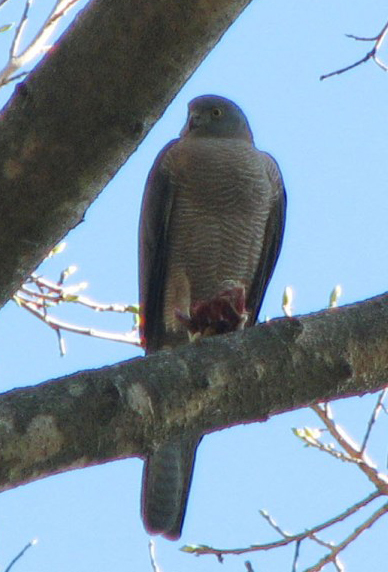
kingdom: Animalia
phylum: Chordata
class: Aves
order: Accipitriformes
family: Accipitridae
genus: Accipiter
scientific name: Accipiter cirrocephalus
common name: Collared sparrowhawk
